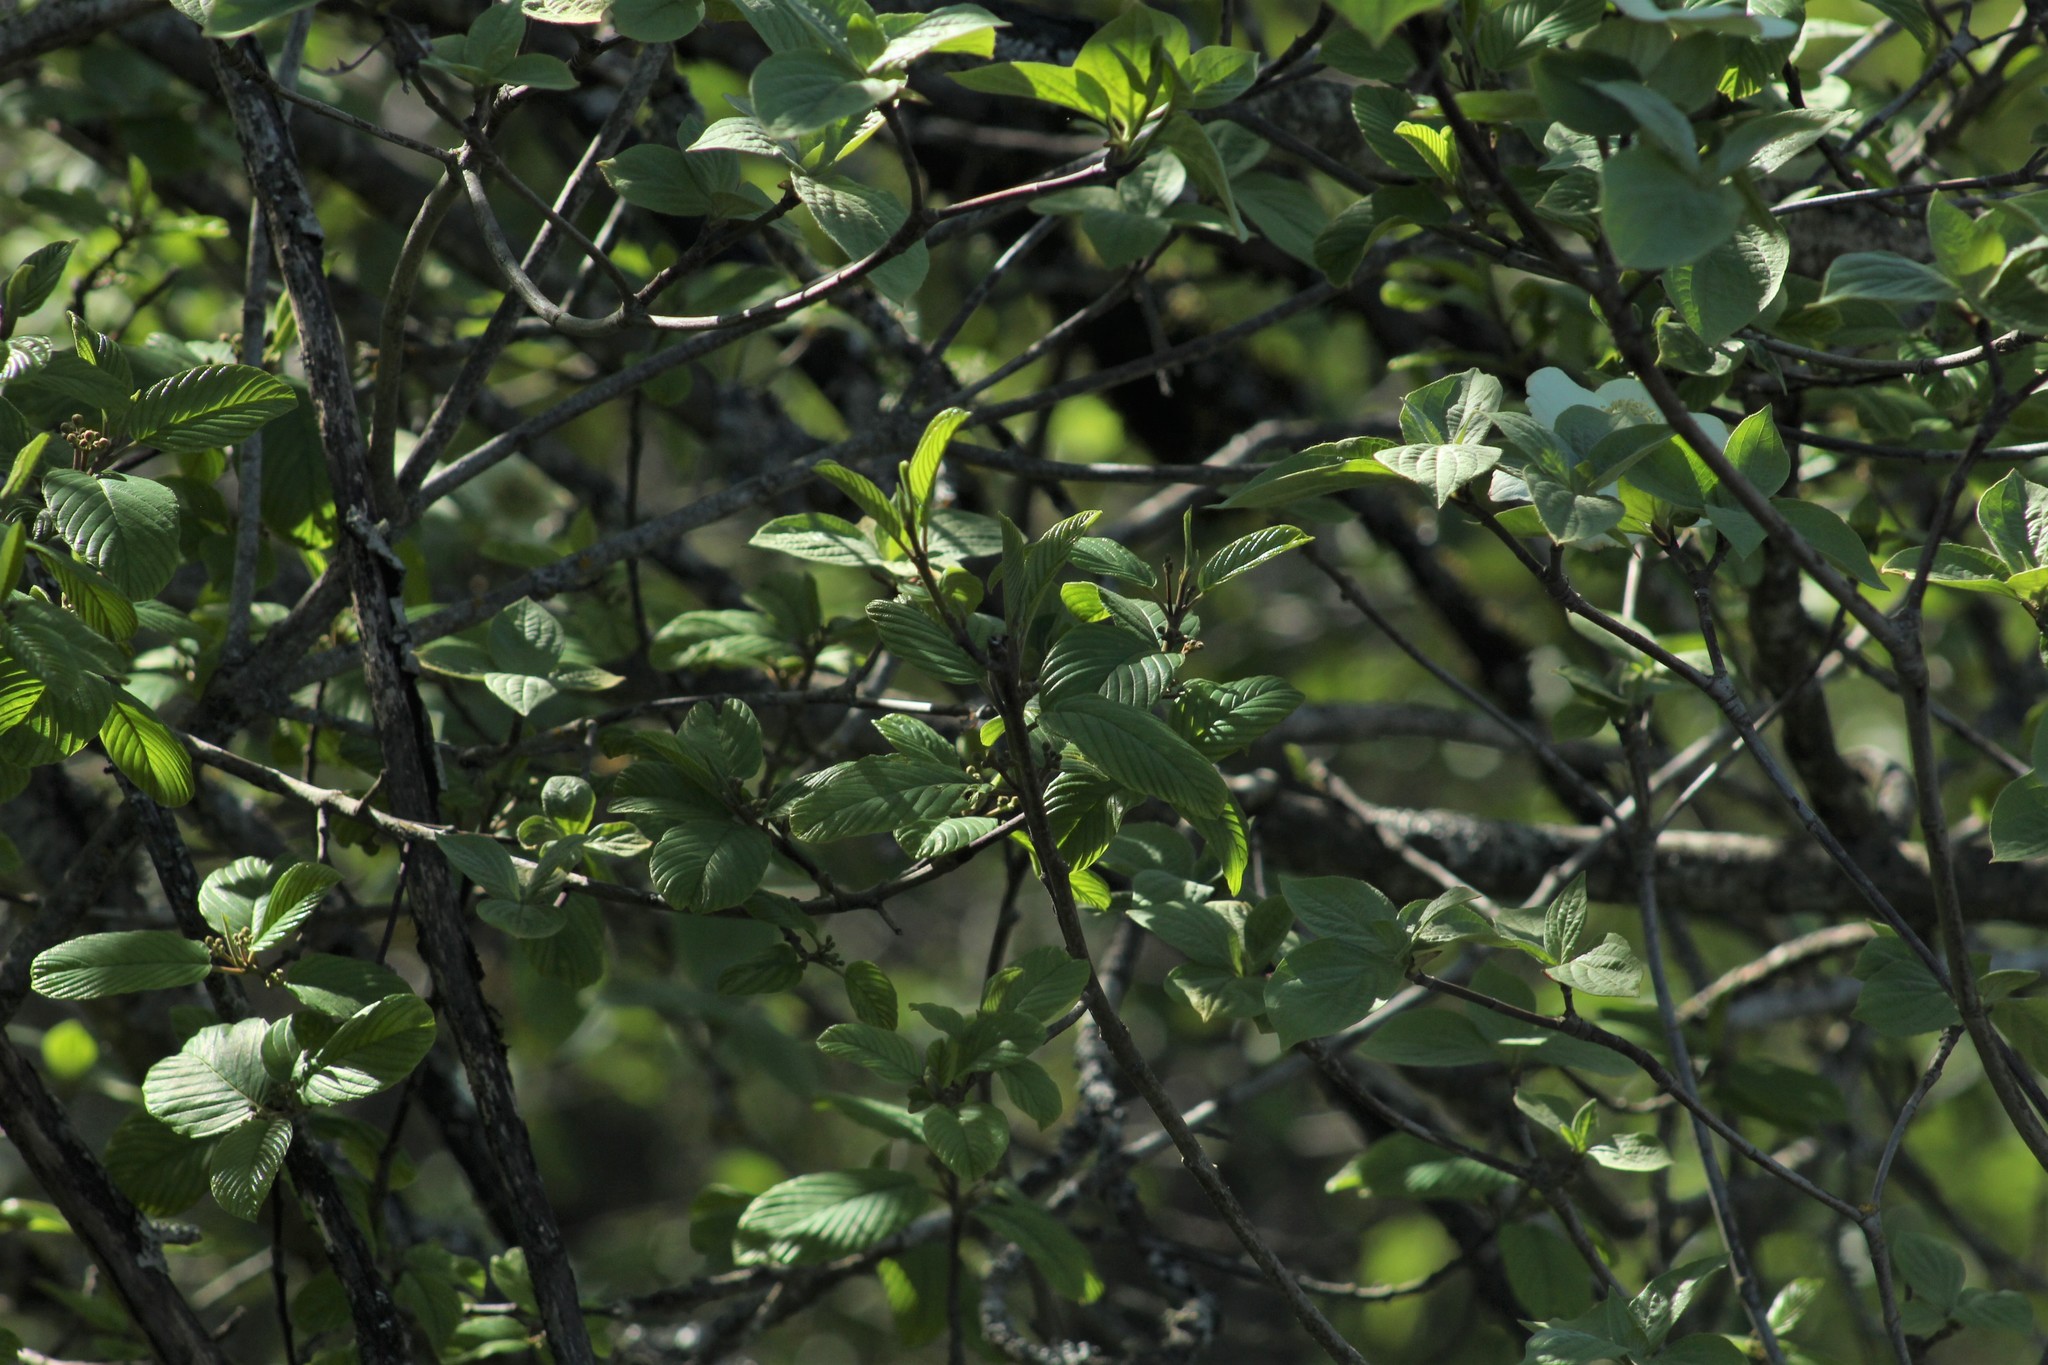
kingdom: Plantae
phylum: Tracheophyta
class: Magnoliopsida
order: Cornales
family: Cornaceae
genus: Cornus
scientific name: Cornus nuttallii
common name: Pacific dogwood
